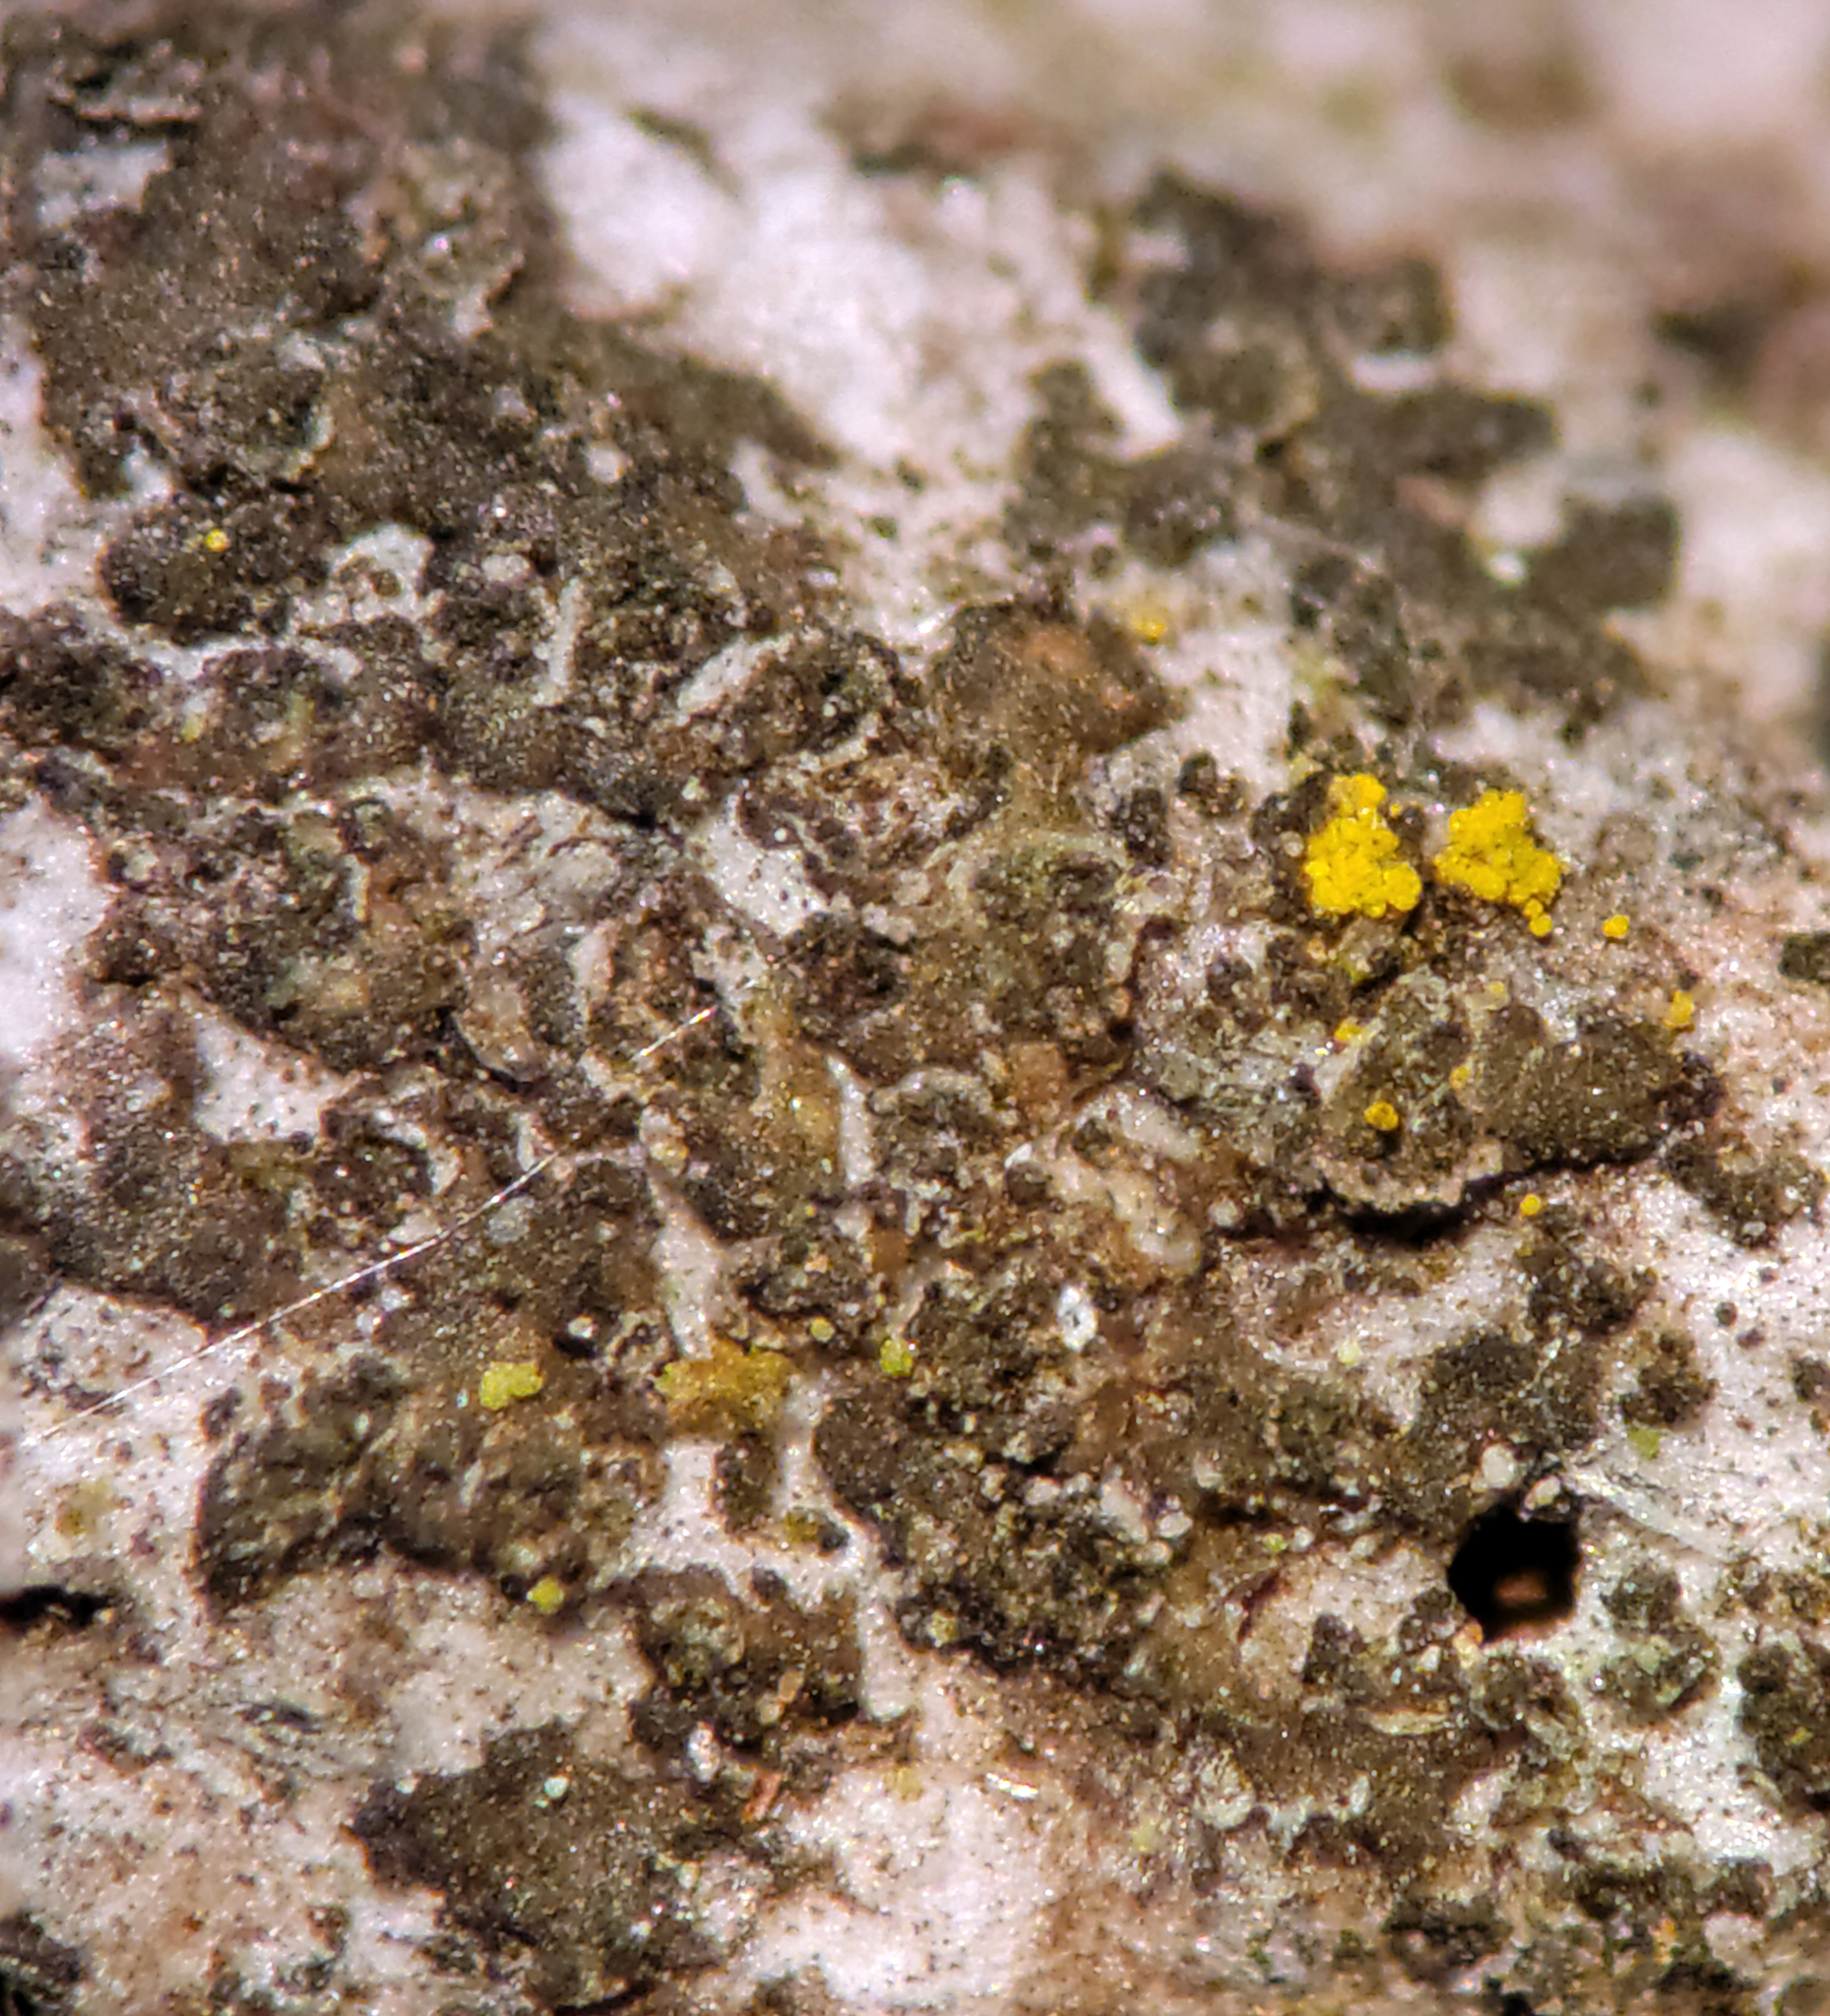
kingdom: Fungi
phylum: Ascomycota
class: Lecanoromycetes
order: Caliciales
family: Physciaceae
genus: Hyperphyscia
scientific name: Hyperphyscia adglutinata
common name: Grainy shadow-crust lichen
